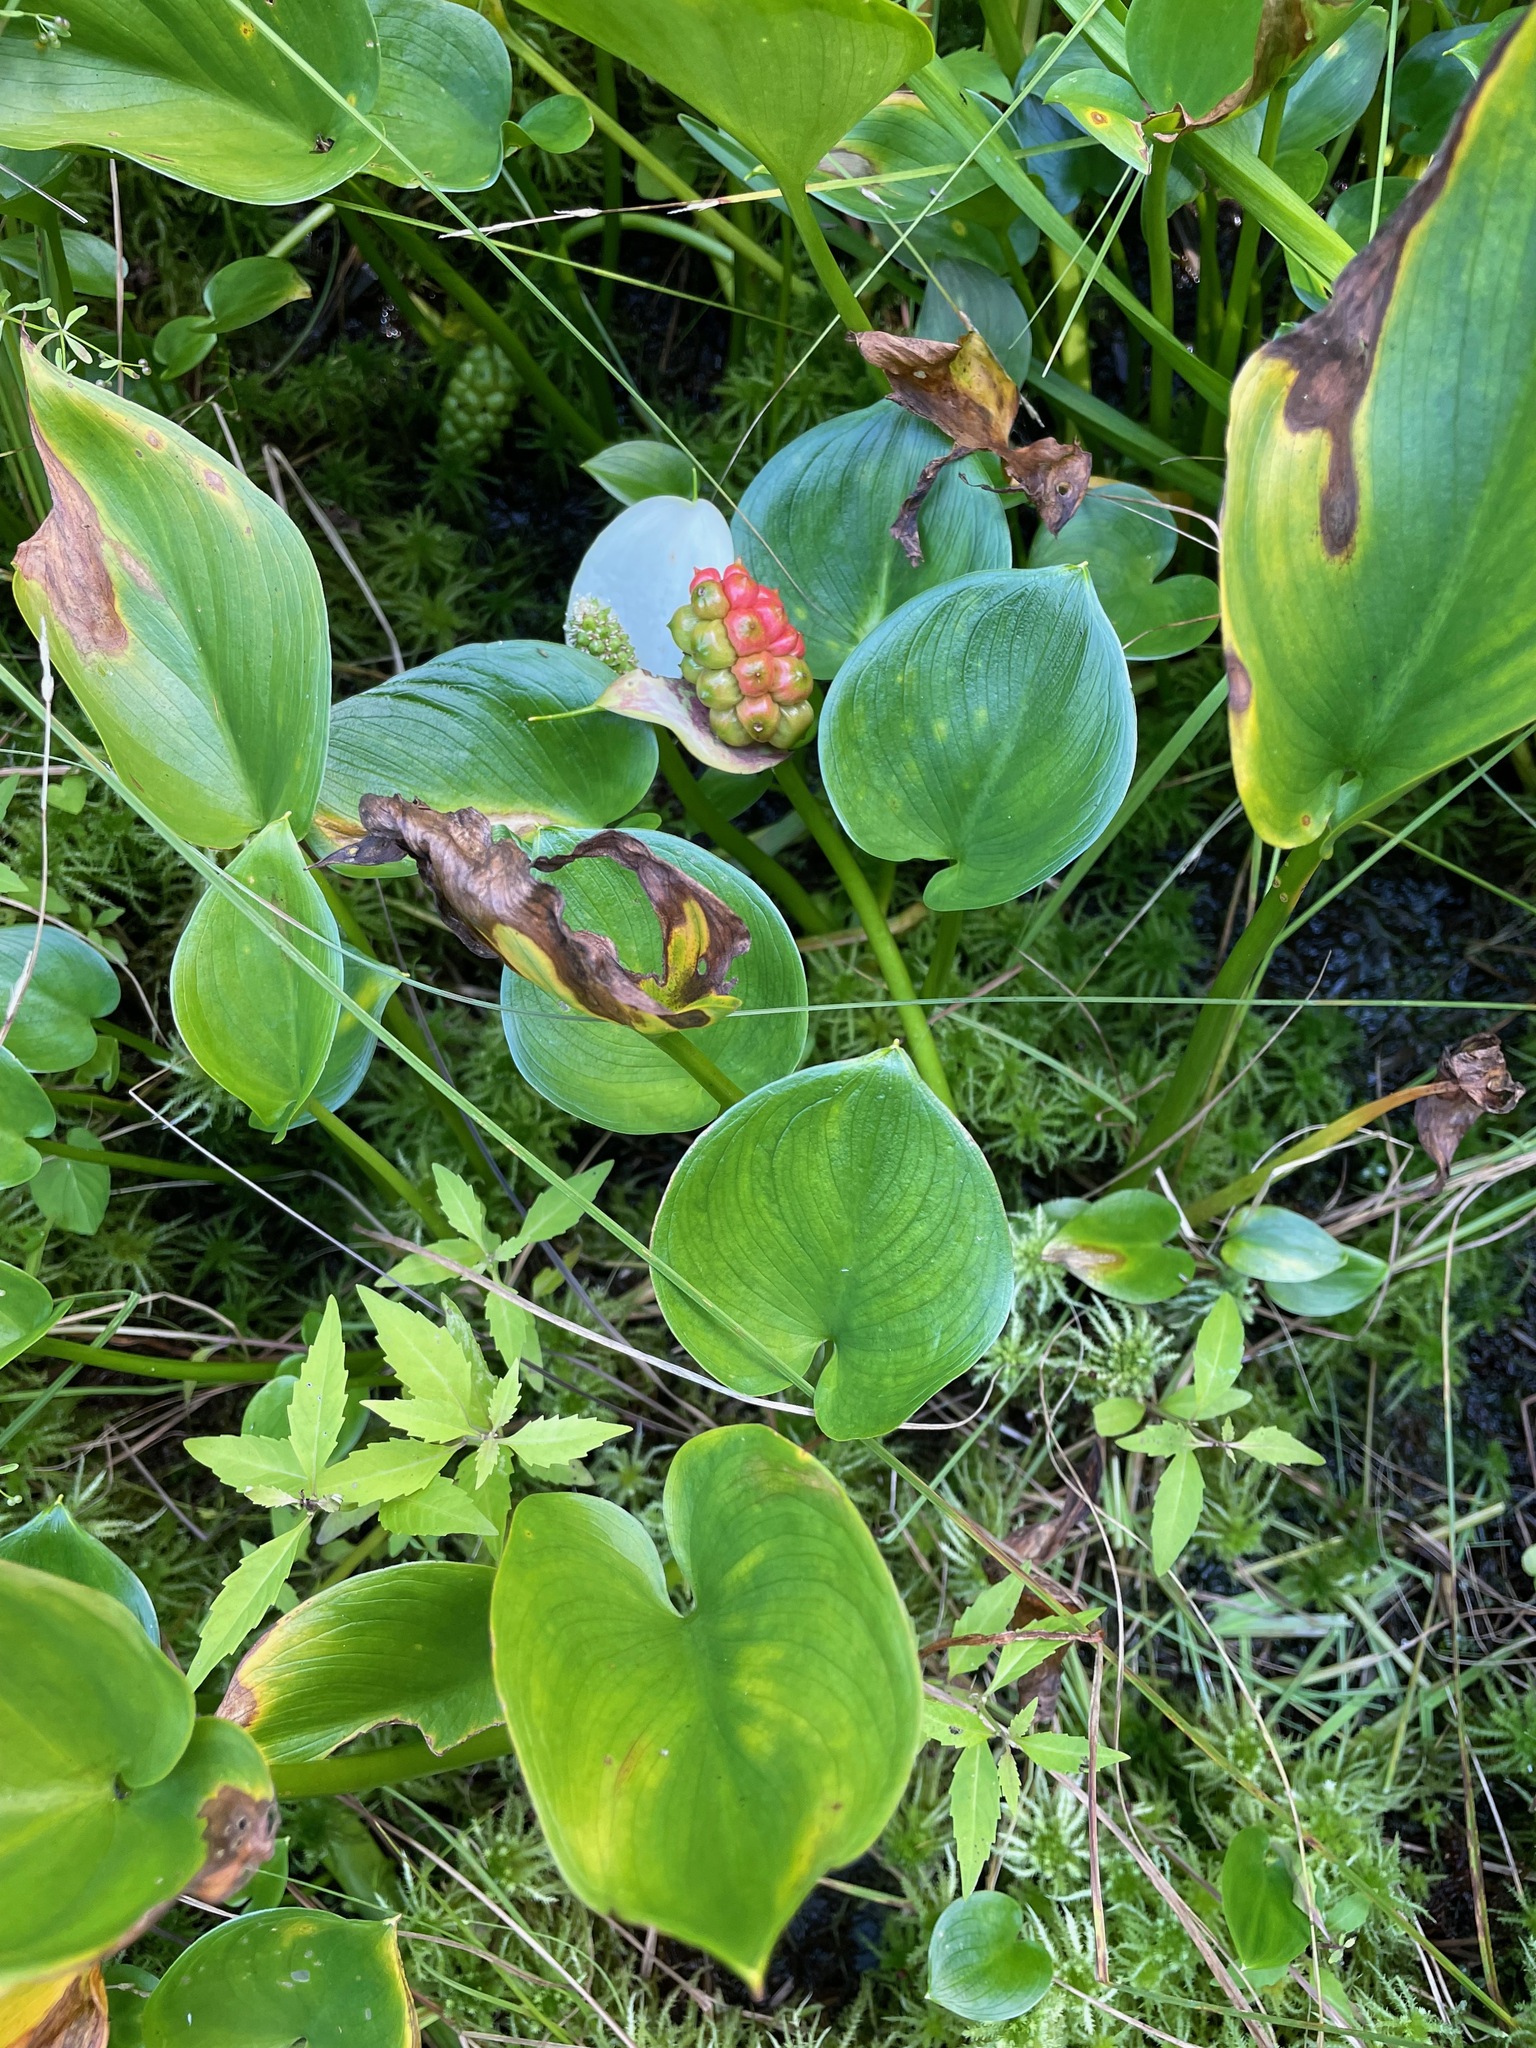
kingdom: Plantae
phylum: Tracheophyta
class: Liliopsida
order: Alismatales
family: Araceae
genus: Calla
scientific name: Calla palustris
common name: Bog arum
